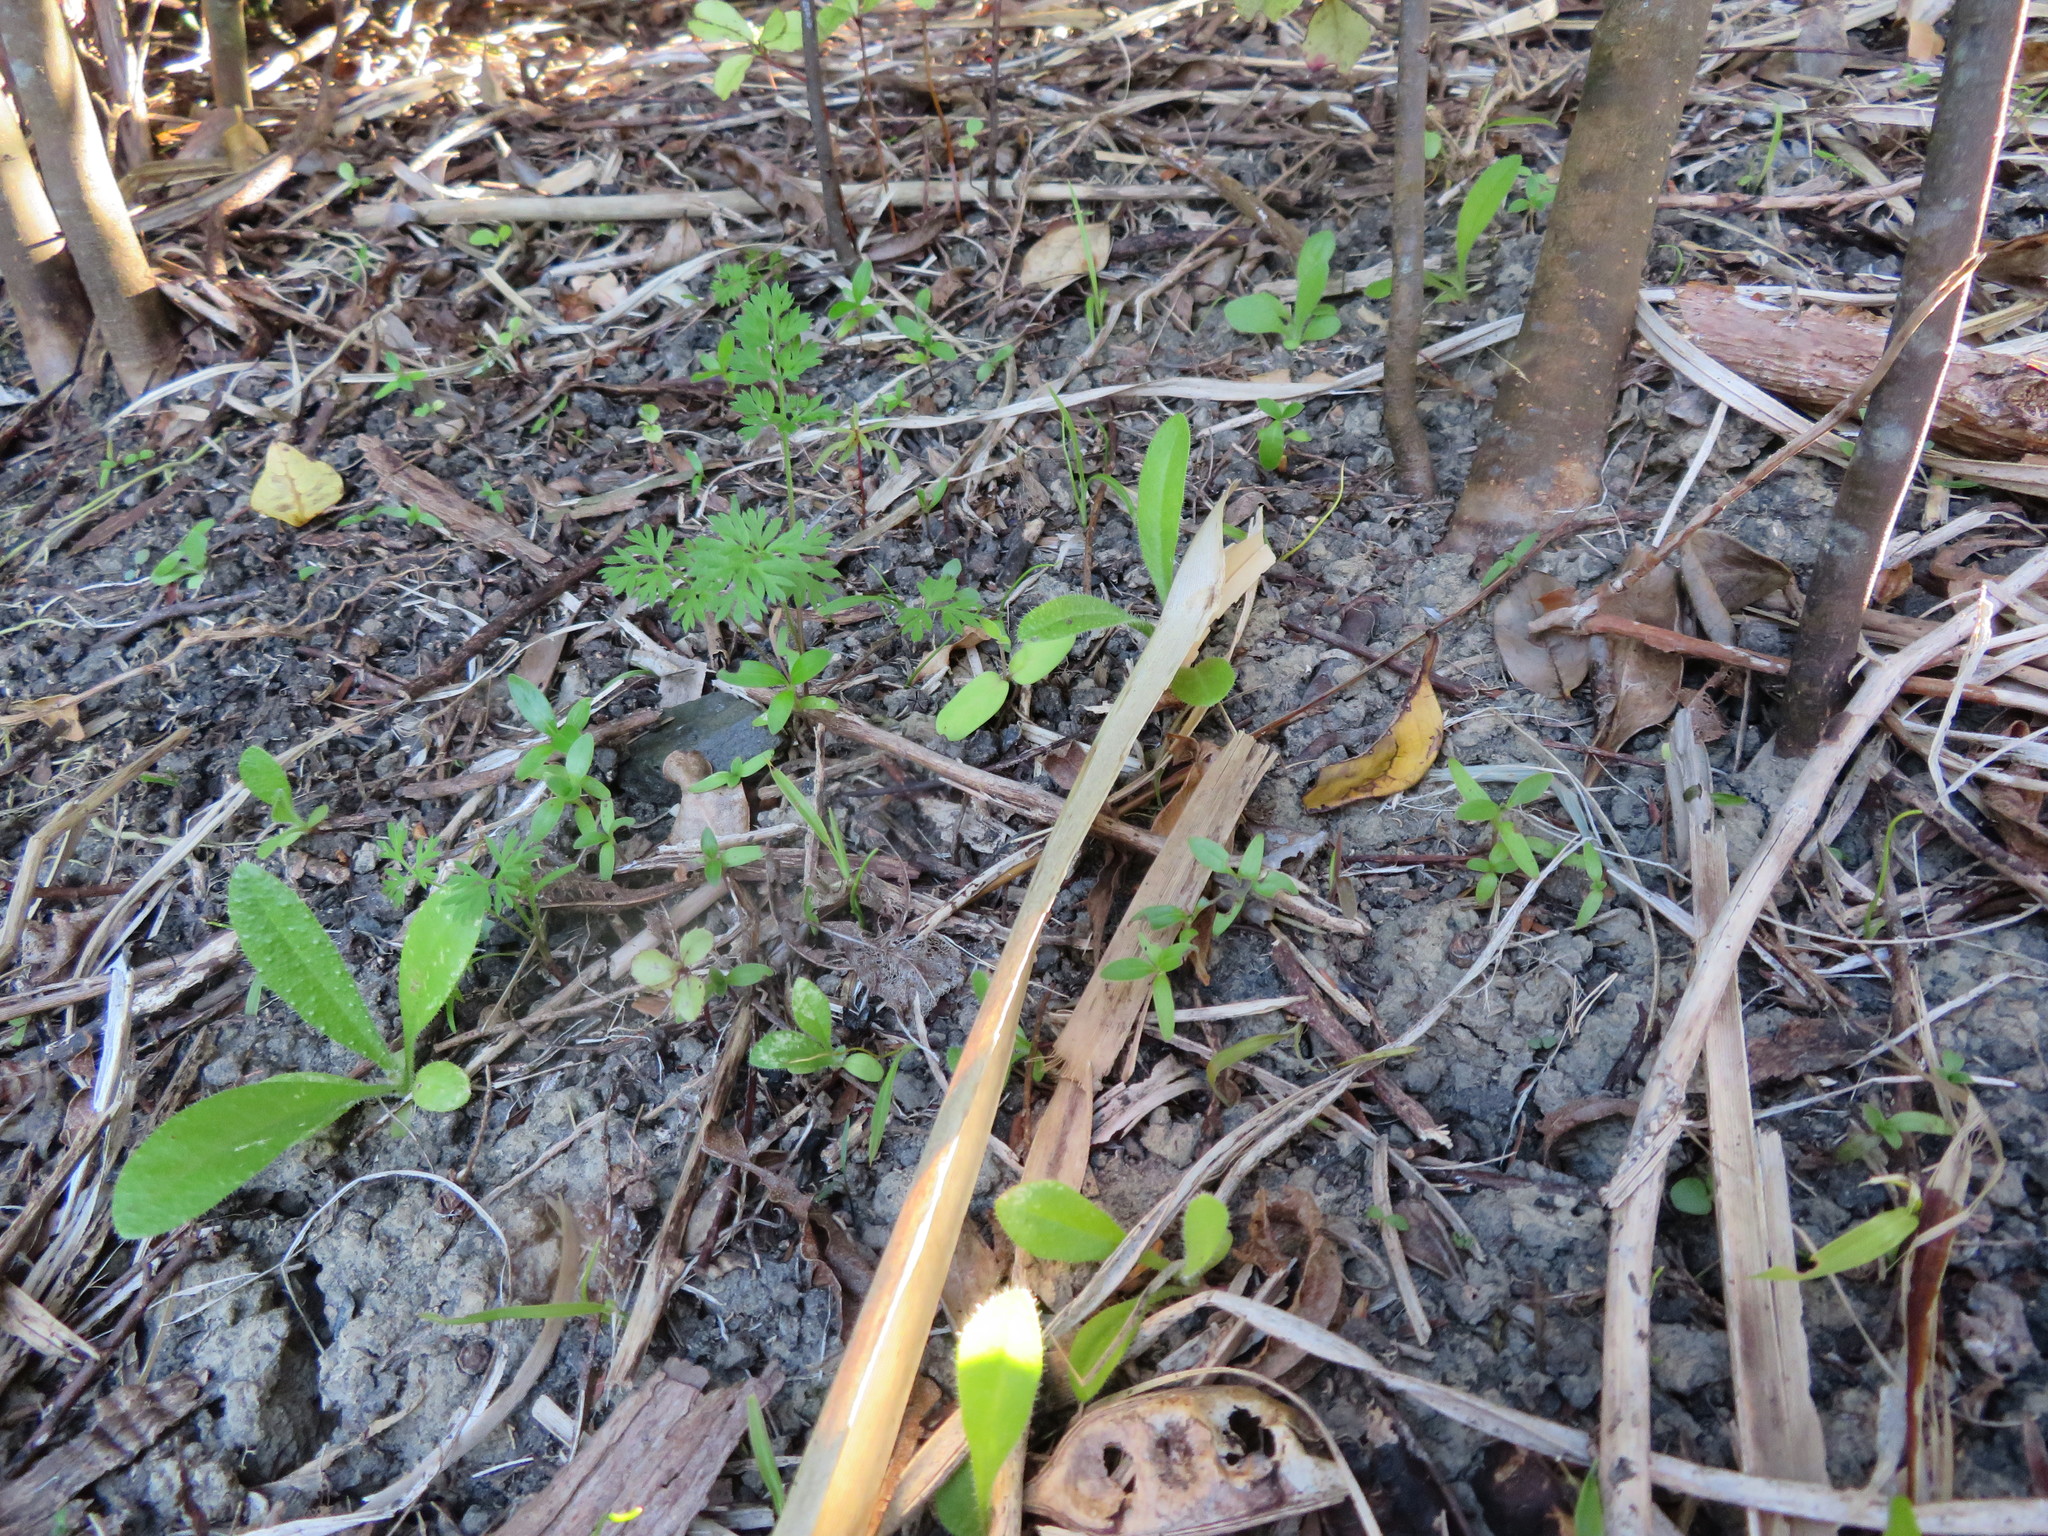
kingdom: Plantae
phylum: Tracheophyta
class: Magnoliopsida
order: Asterales
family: Asteraceae
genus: Helminthotheca
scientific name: Helminthotheca echioides
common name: Ox-tongue
